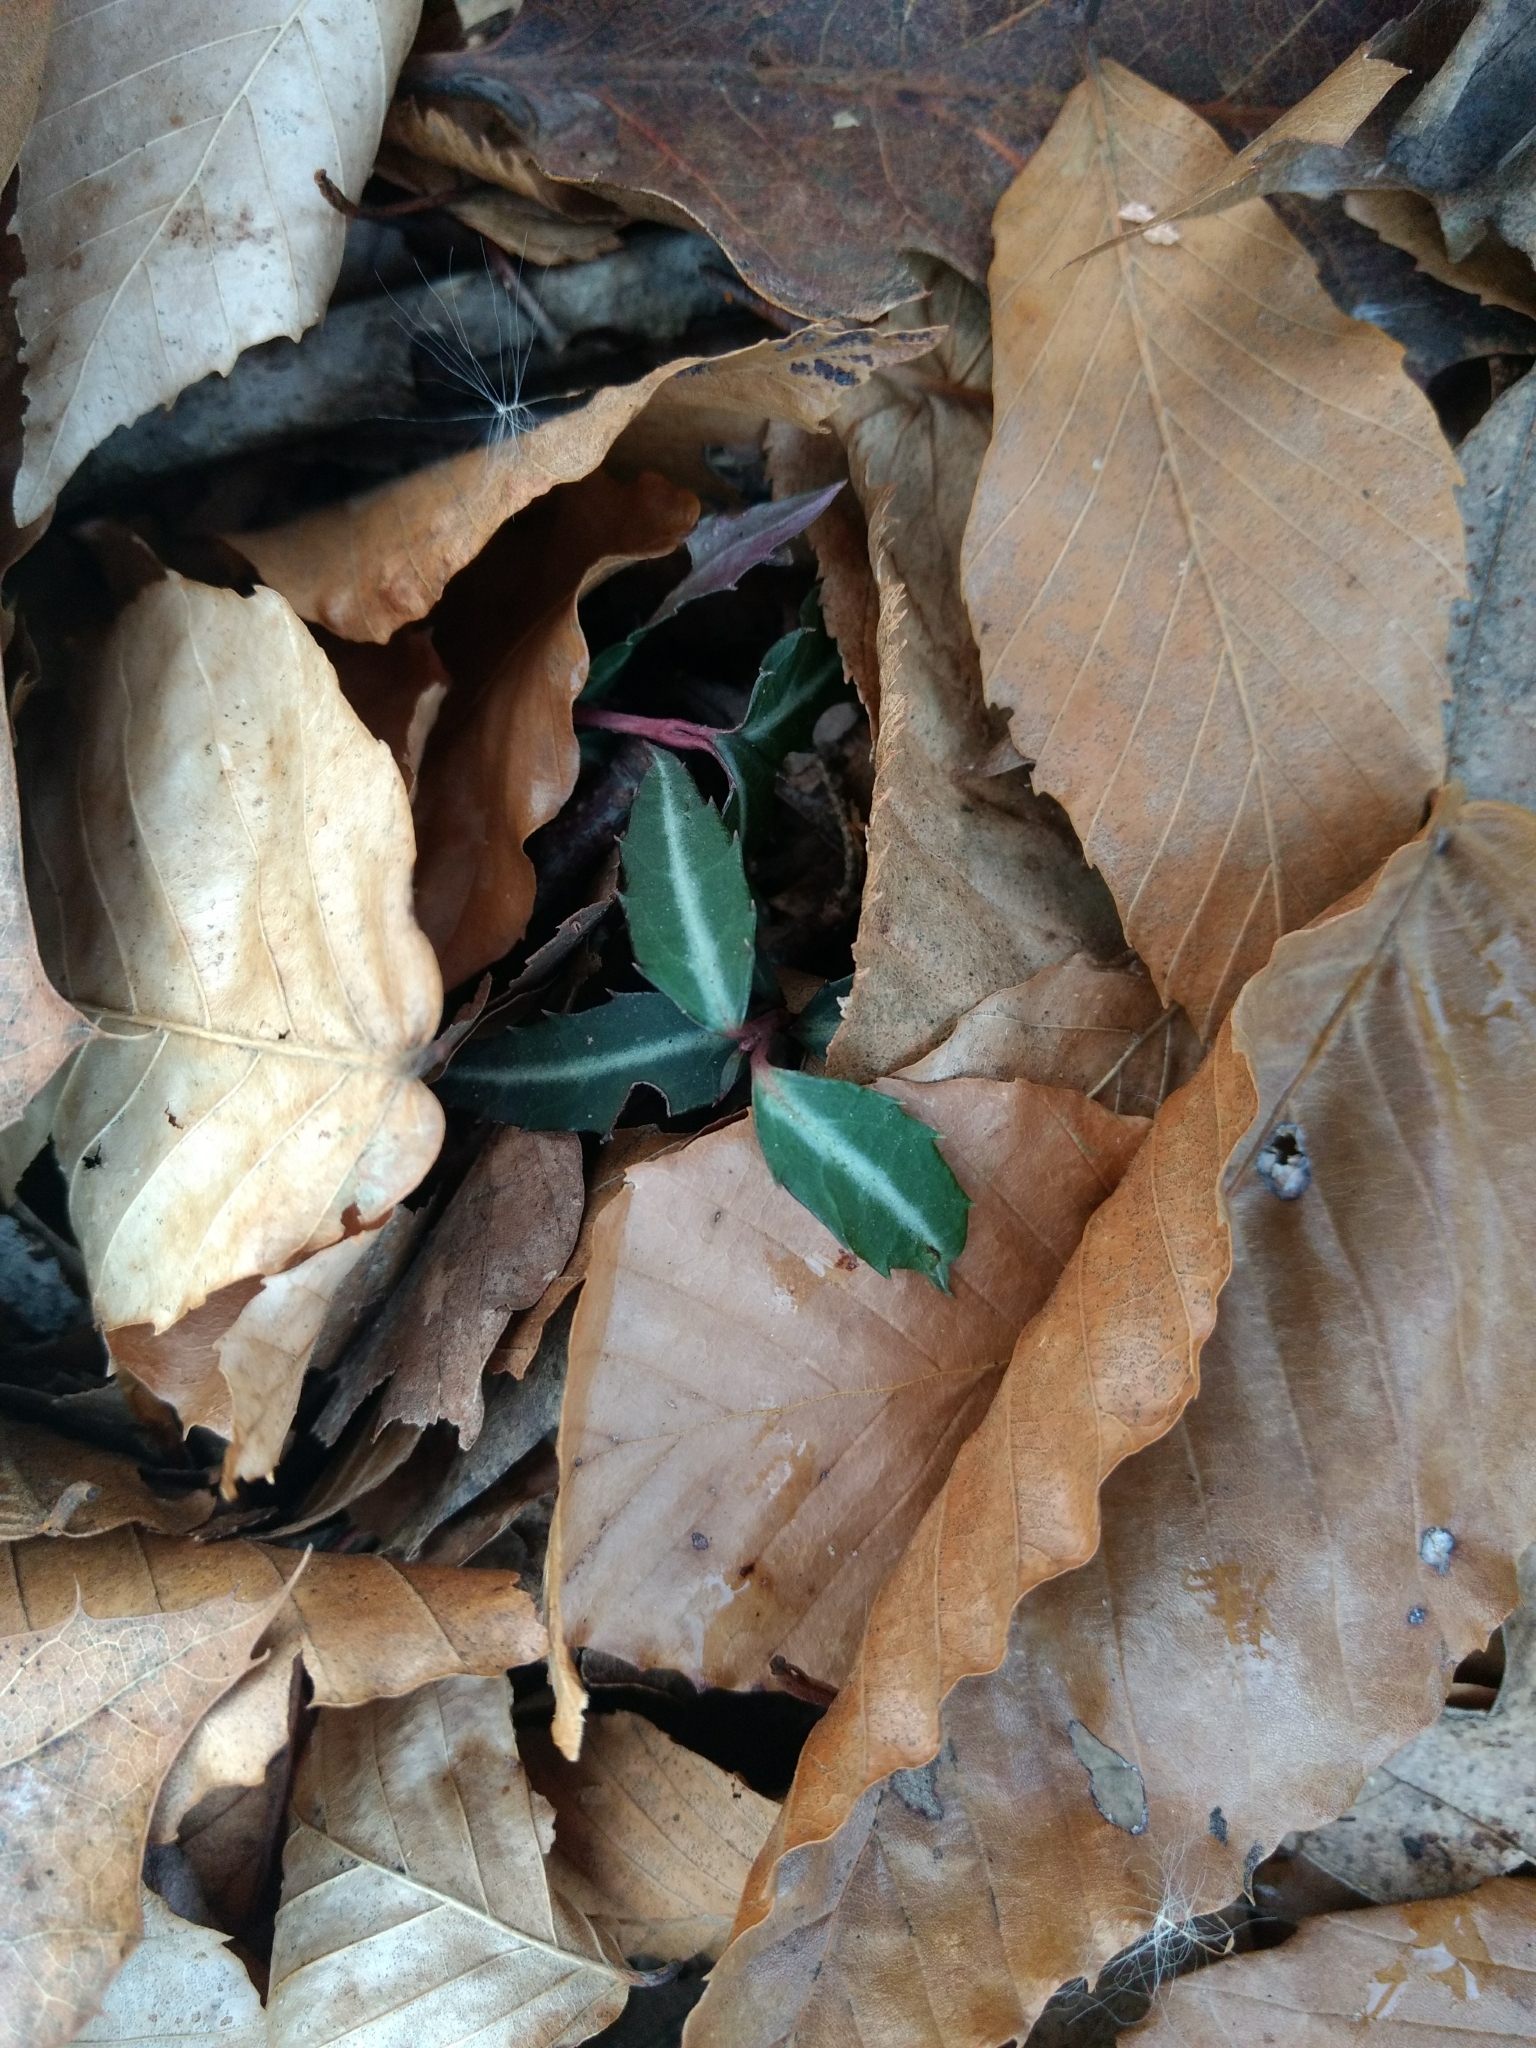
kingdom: Plantae
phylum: Tracheophyta
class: Magnoliopsida
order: Ericales
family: Ericaceae
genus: Chimaphila
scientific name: Chimaphila maculata
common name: Spotted pipsissewa
